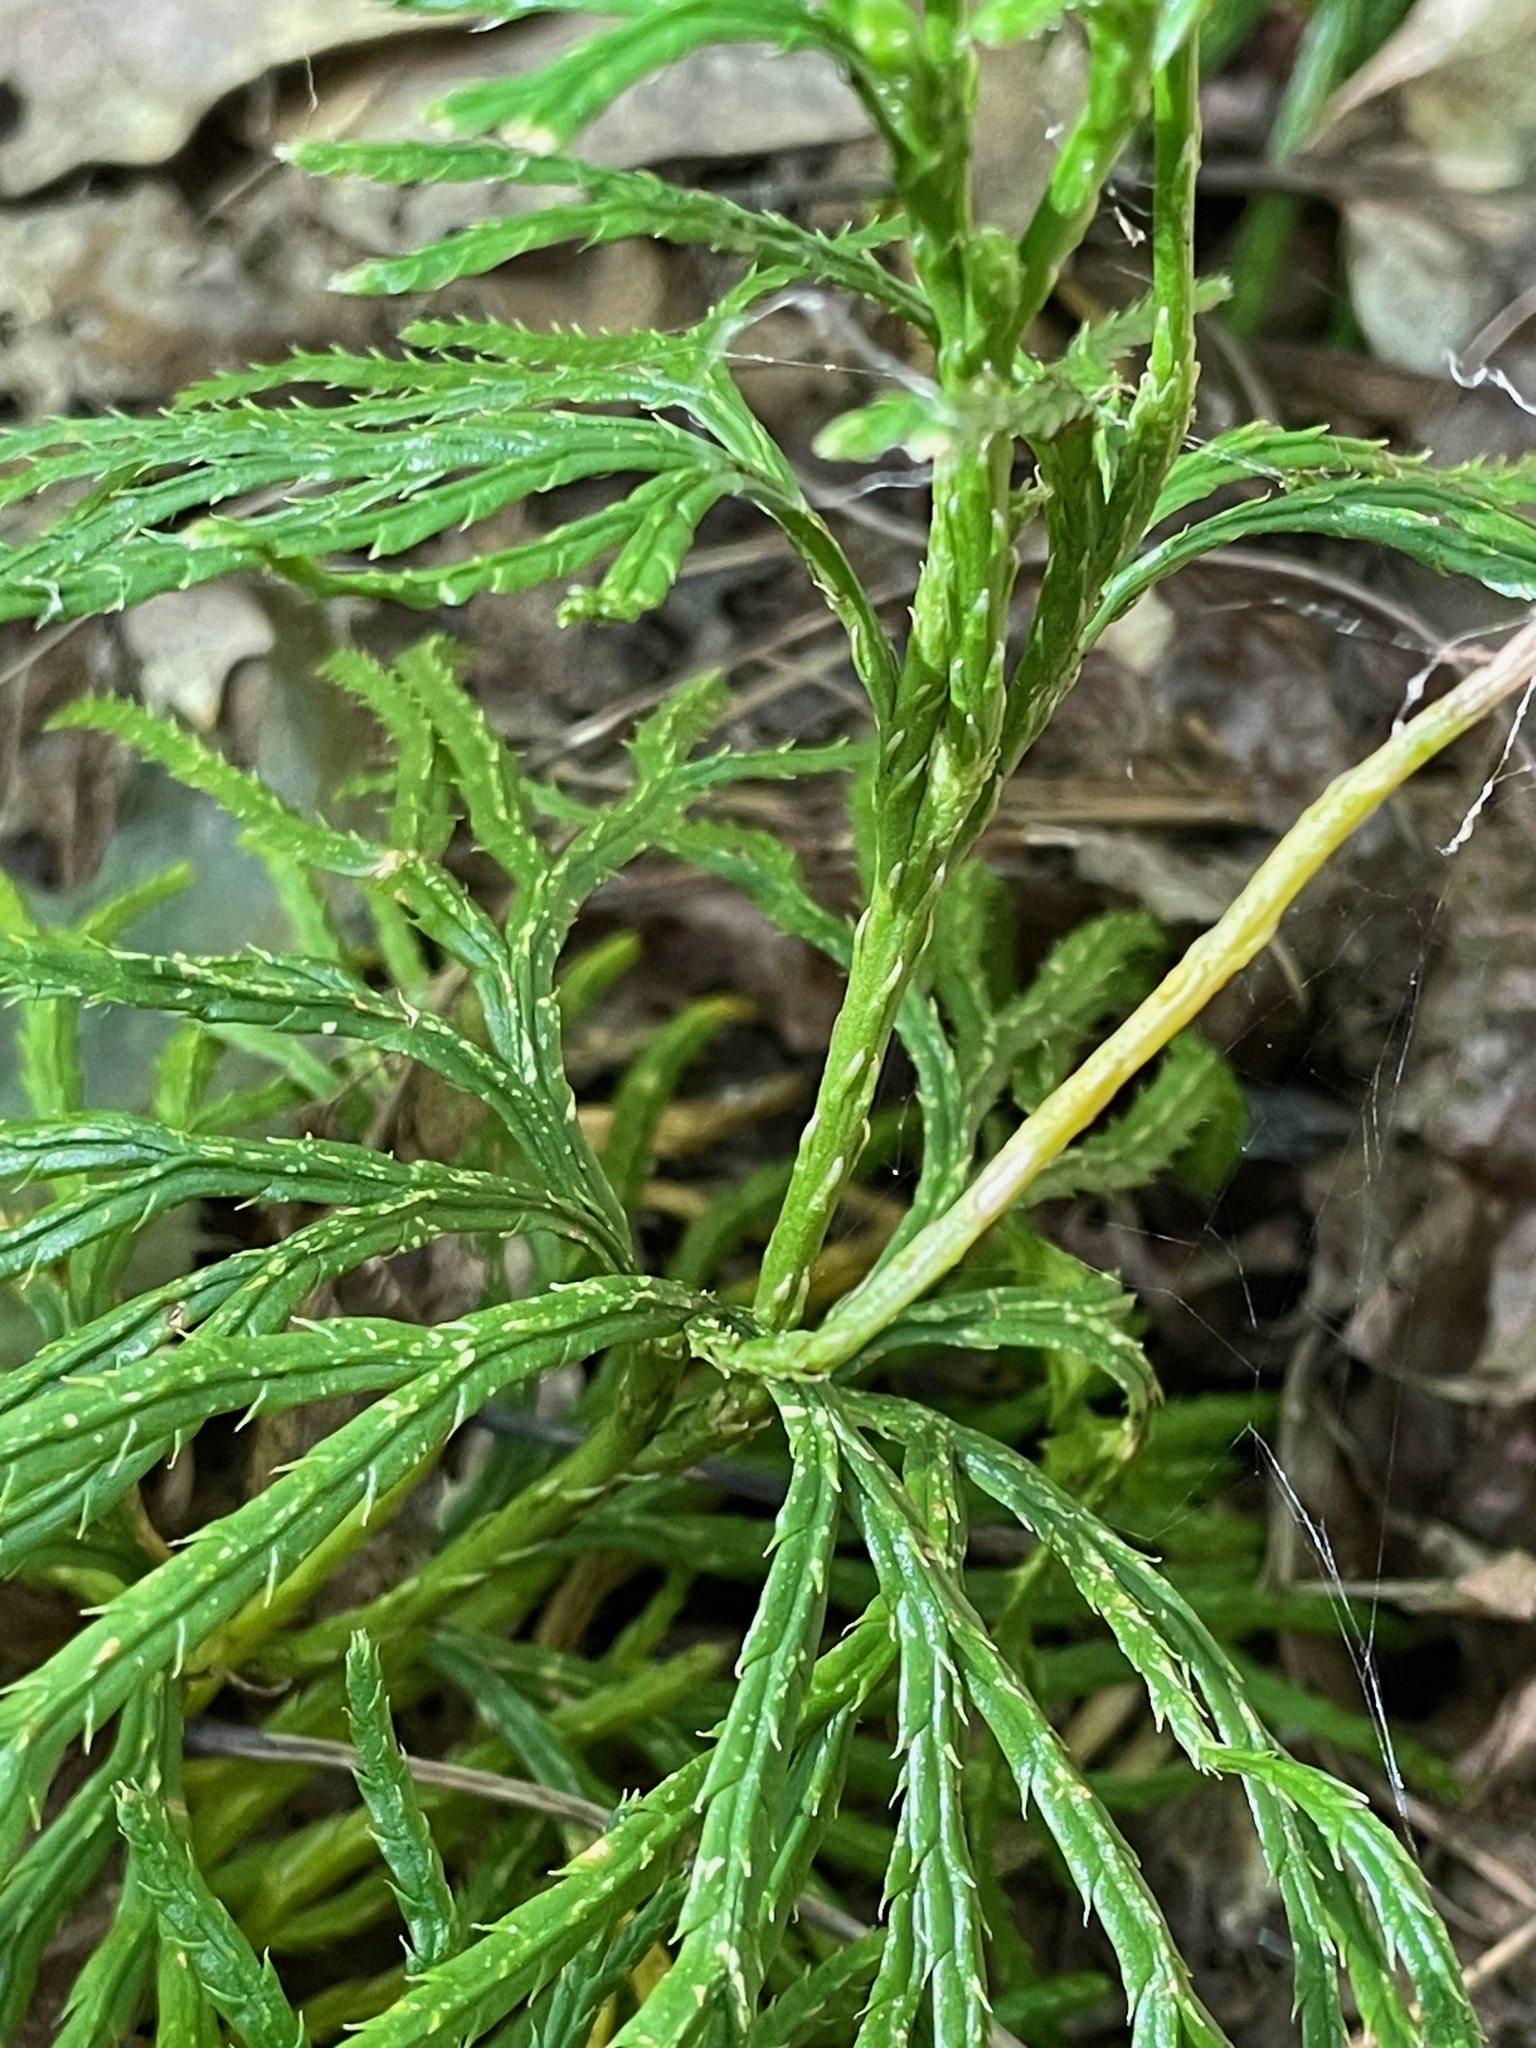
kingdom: Plantae
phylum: Tracheophyta
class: Lycopodiopsida
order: Lycopodiales
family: Lycopodiaceae
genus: Diphasiastrum
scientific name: Diphasiastrum digitatum
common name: Southern running-pine
